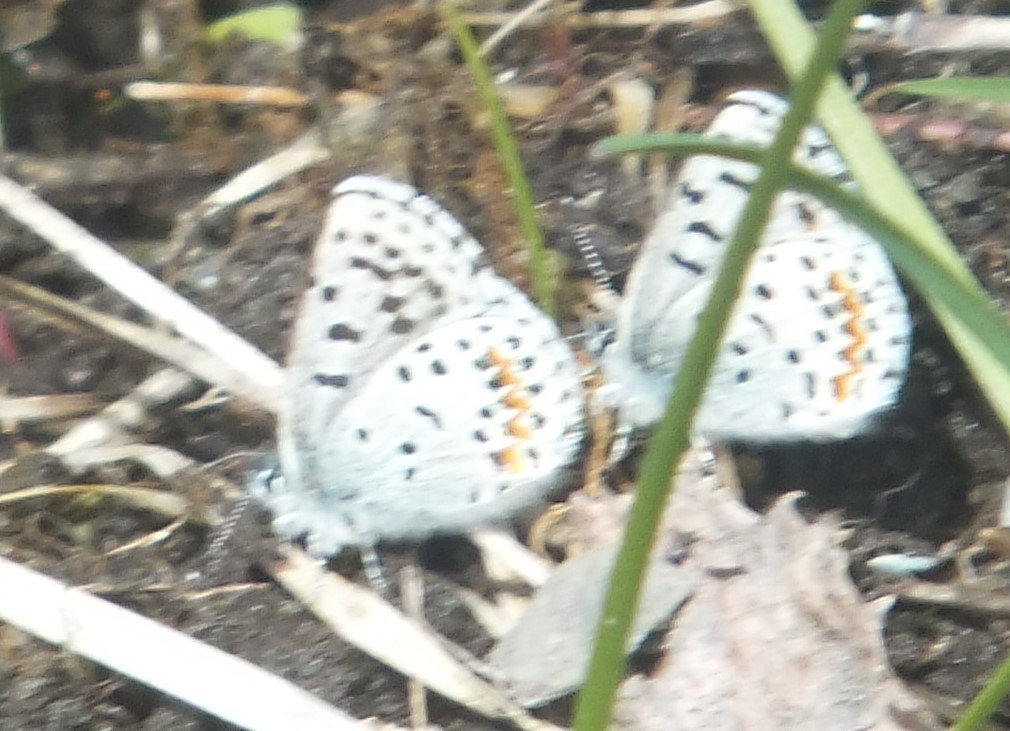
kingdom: Animalia
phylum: Arthropoda
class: Insecta
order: Lepidoptera
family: Lycaenidae
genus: Euphilotes
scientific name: Euphilotes
